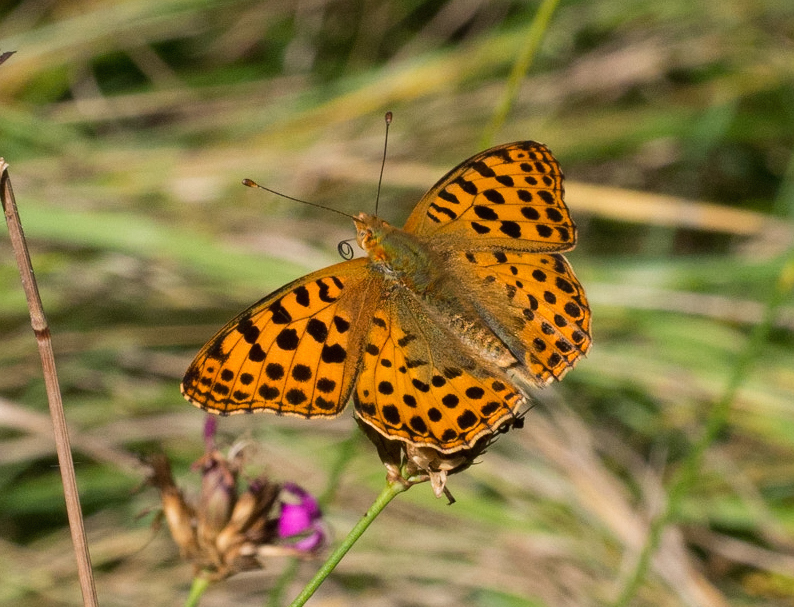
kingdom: Animalia
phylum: Arthropoda
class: Insecta
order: Lepidoptera
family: Nymphalidae
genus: Issoria
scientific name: Issoria lathonia
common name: Queen of spain fritillary
